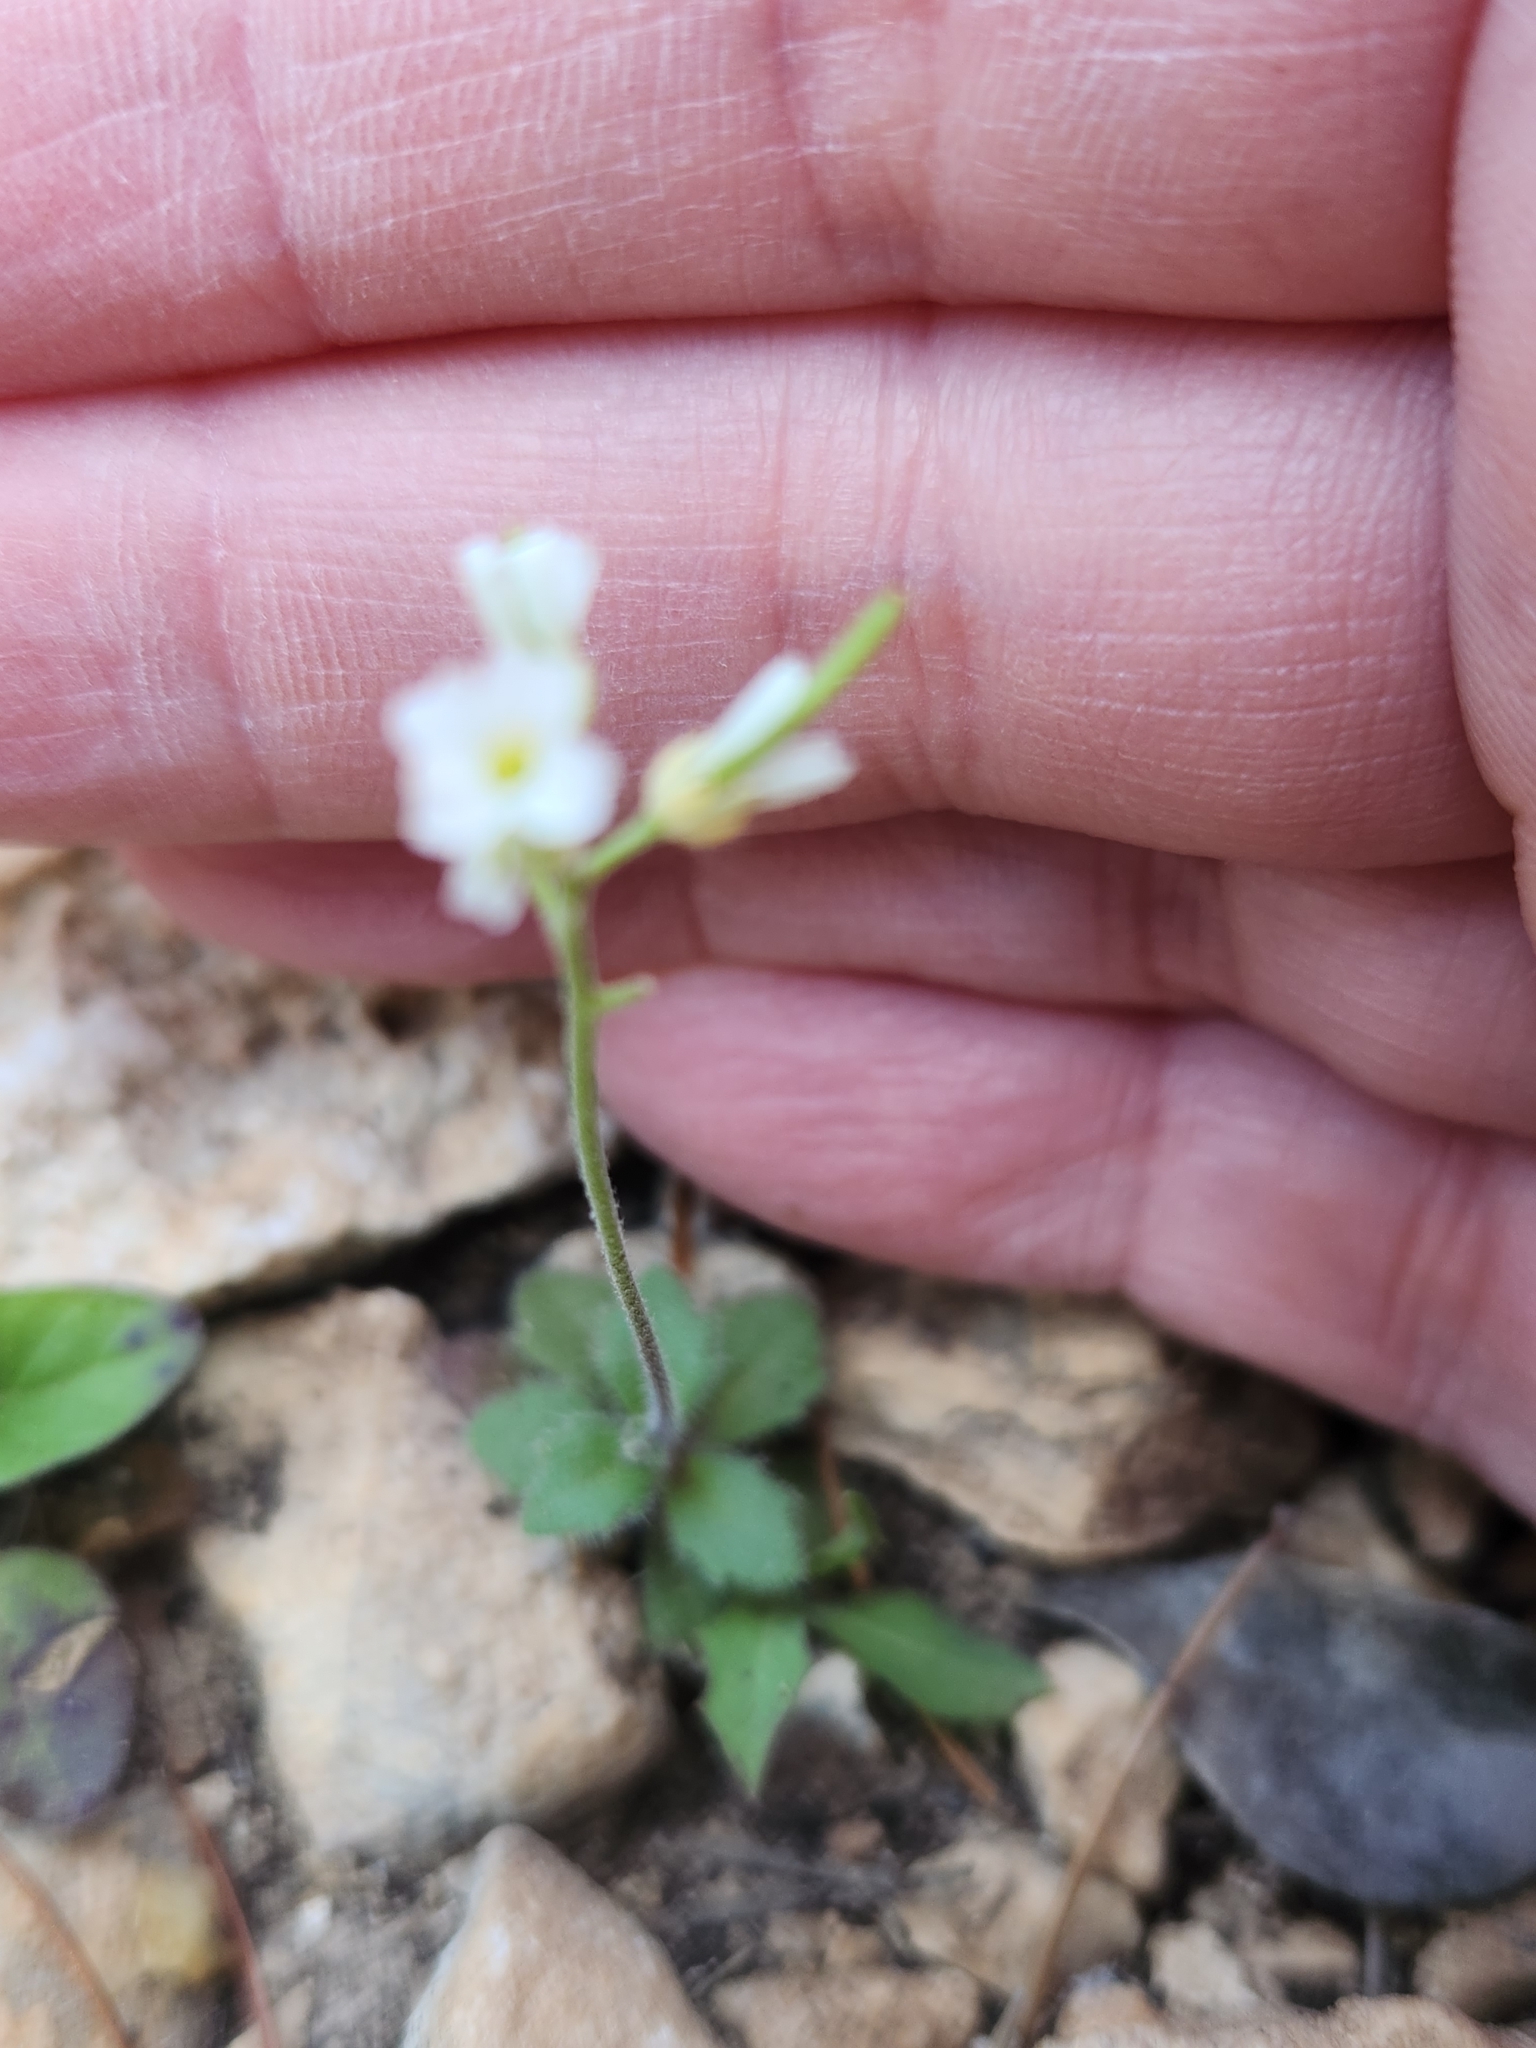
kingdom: Plantae
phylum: Tracheophyta
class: Magnoliopsida
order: Brassicales
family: Brassicaceae
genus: Tomostima
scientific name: Tomostima cuneifolia
